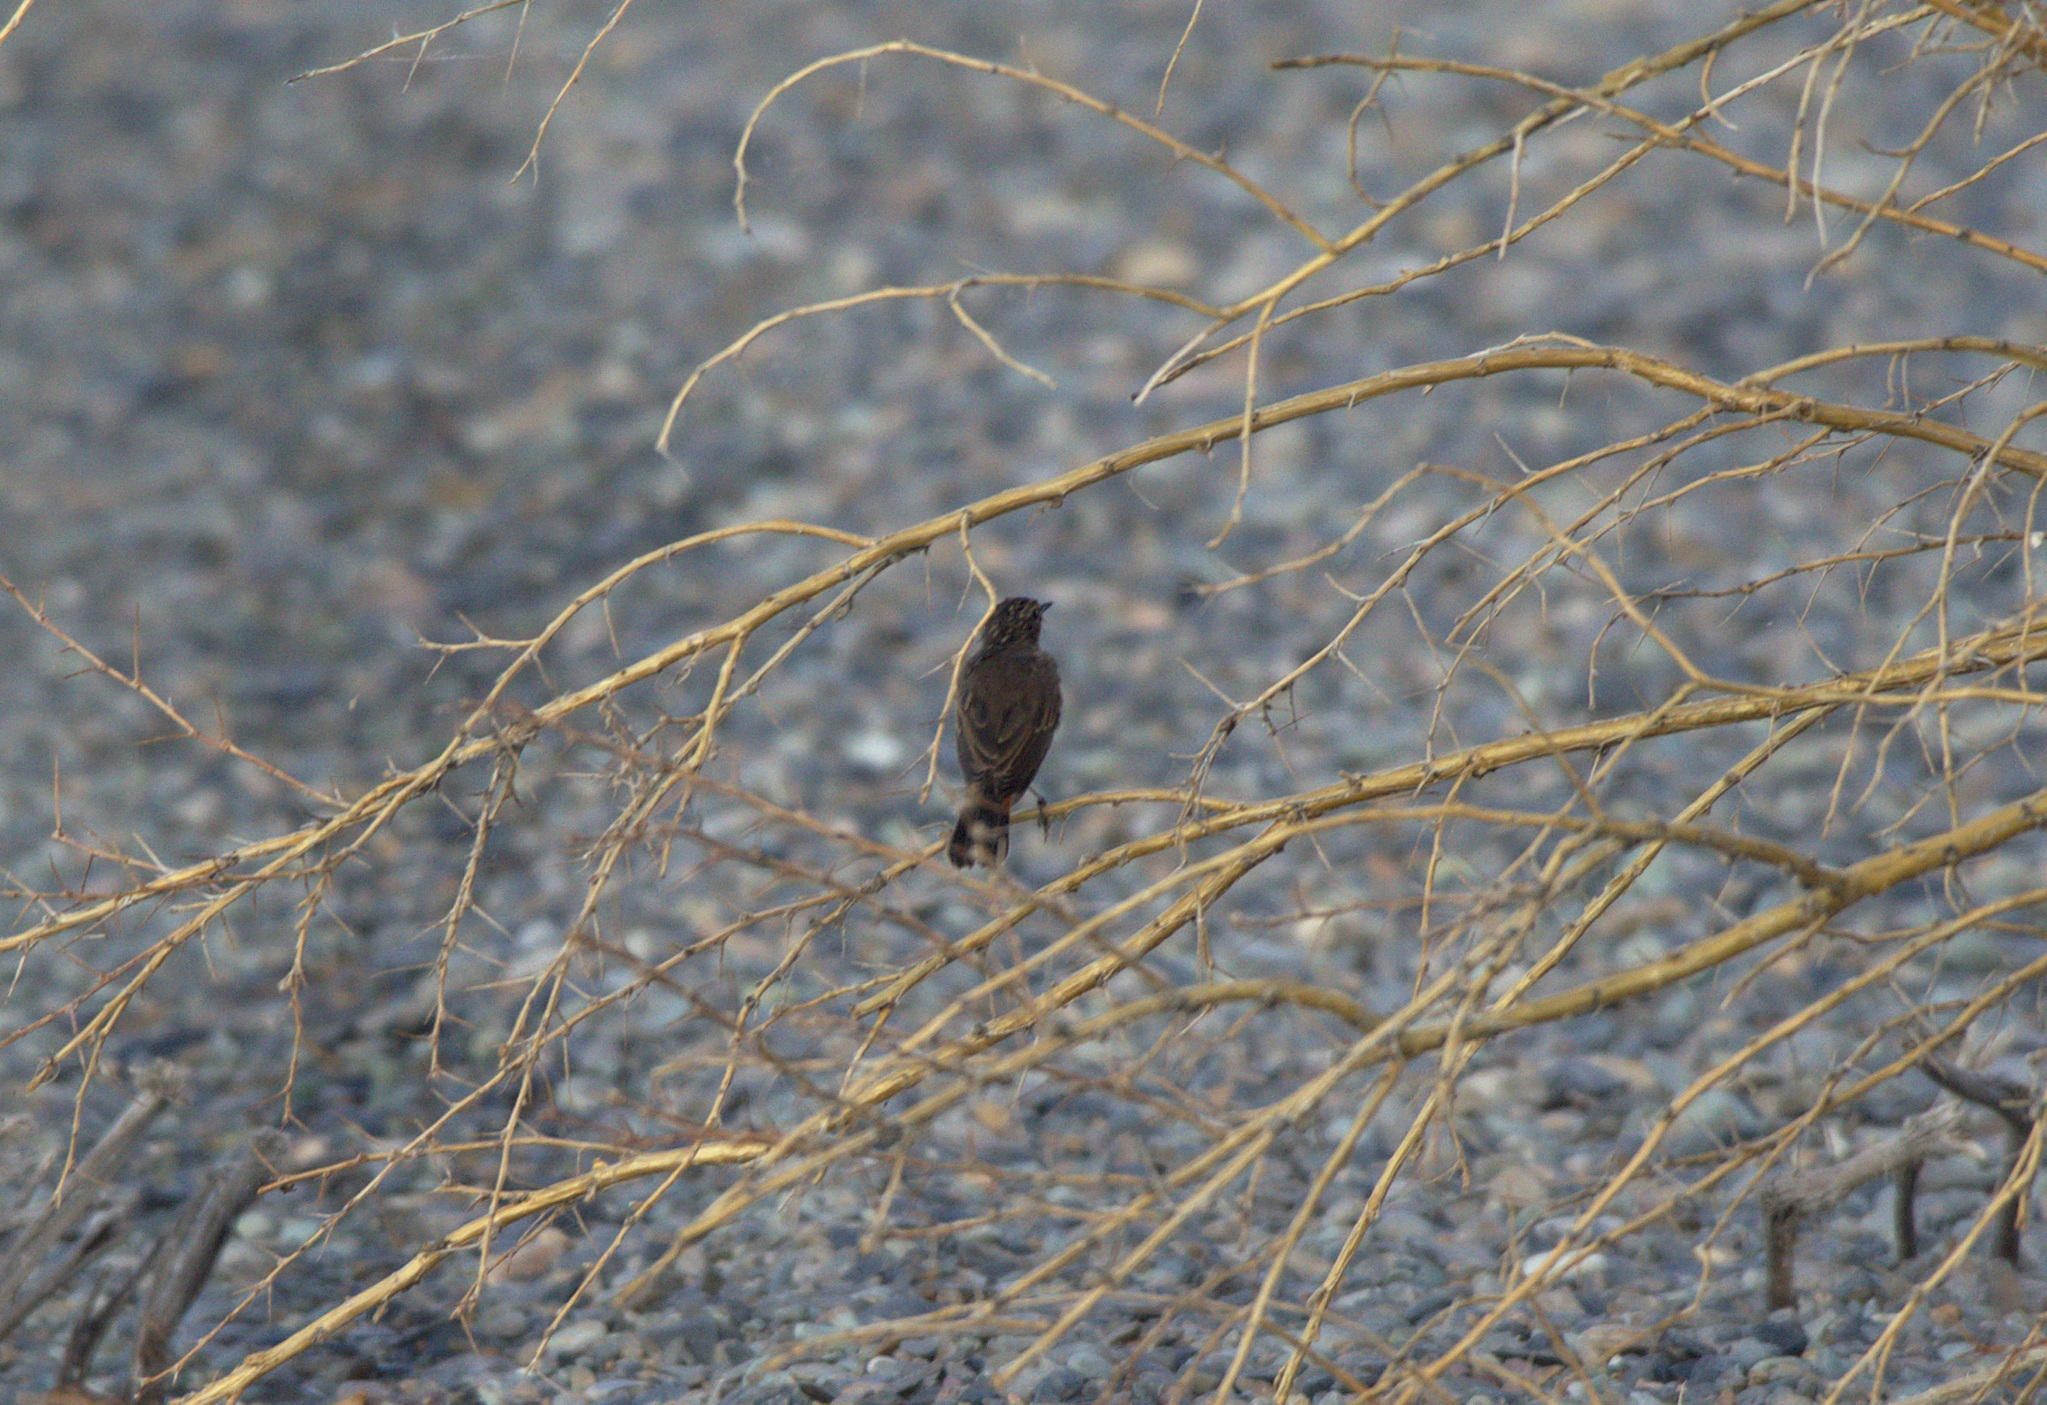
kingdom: Animalia
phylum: Chordata
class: Aves
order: Passeriformes
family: Muscicapidae
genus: Luscinia
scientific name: Luscinia svecica
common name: Bluethroat
